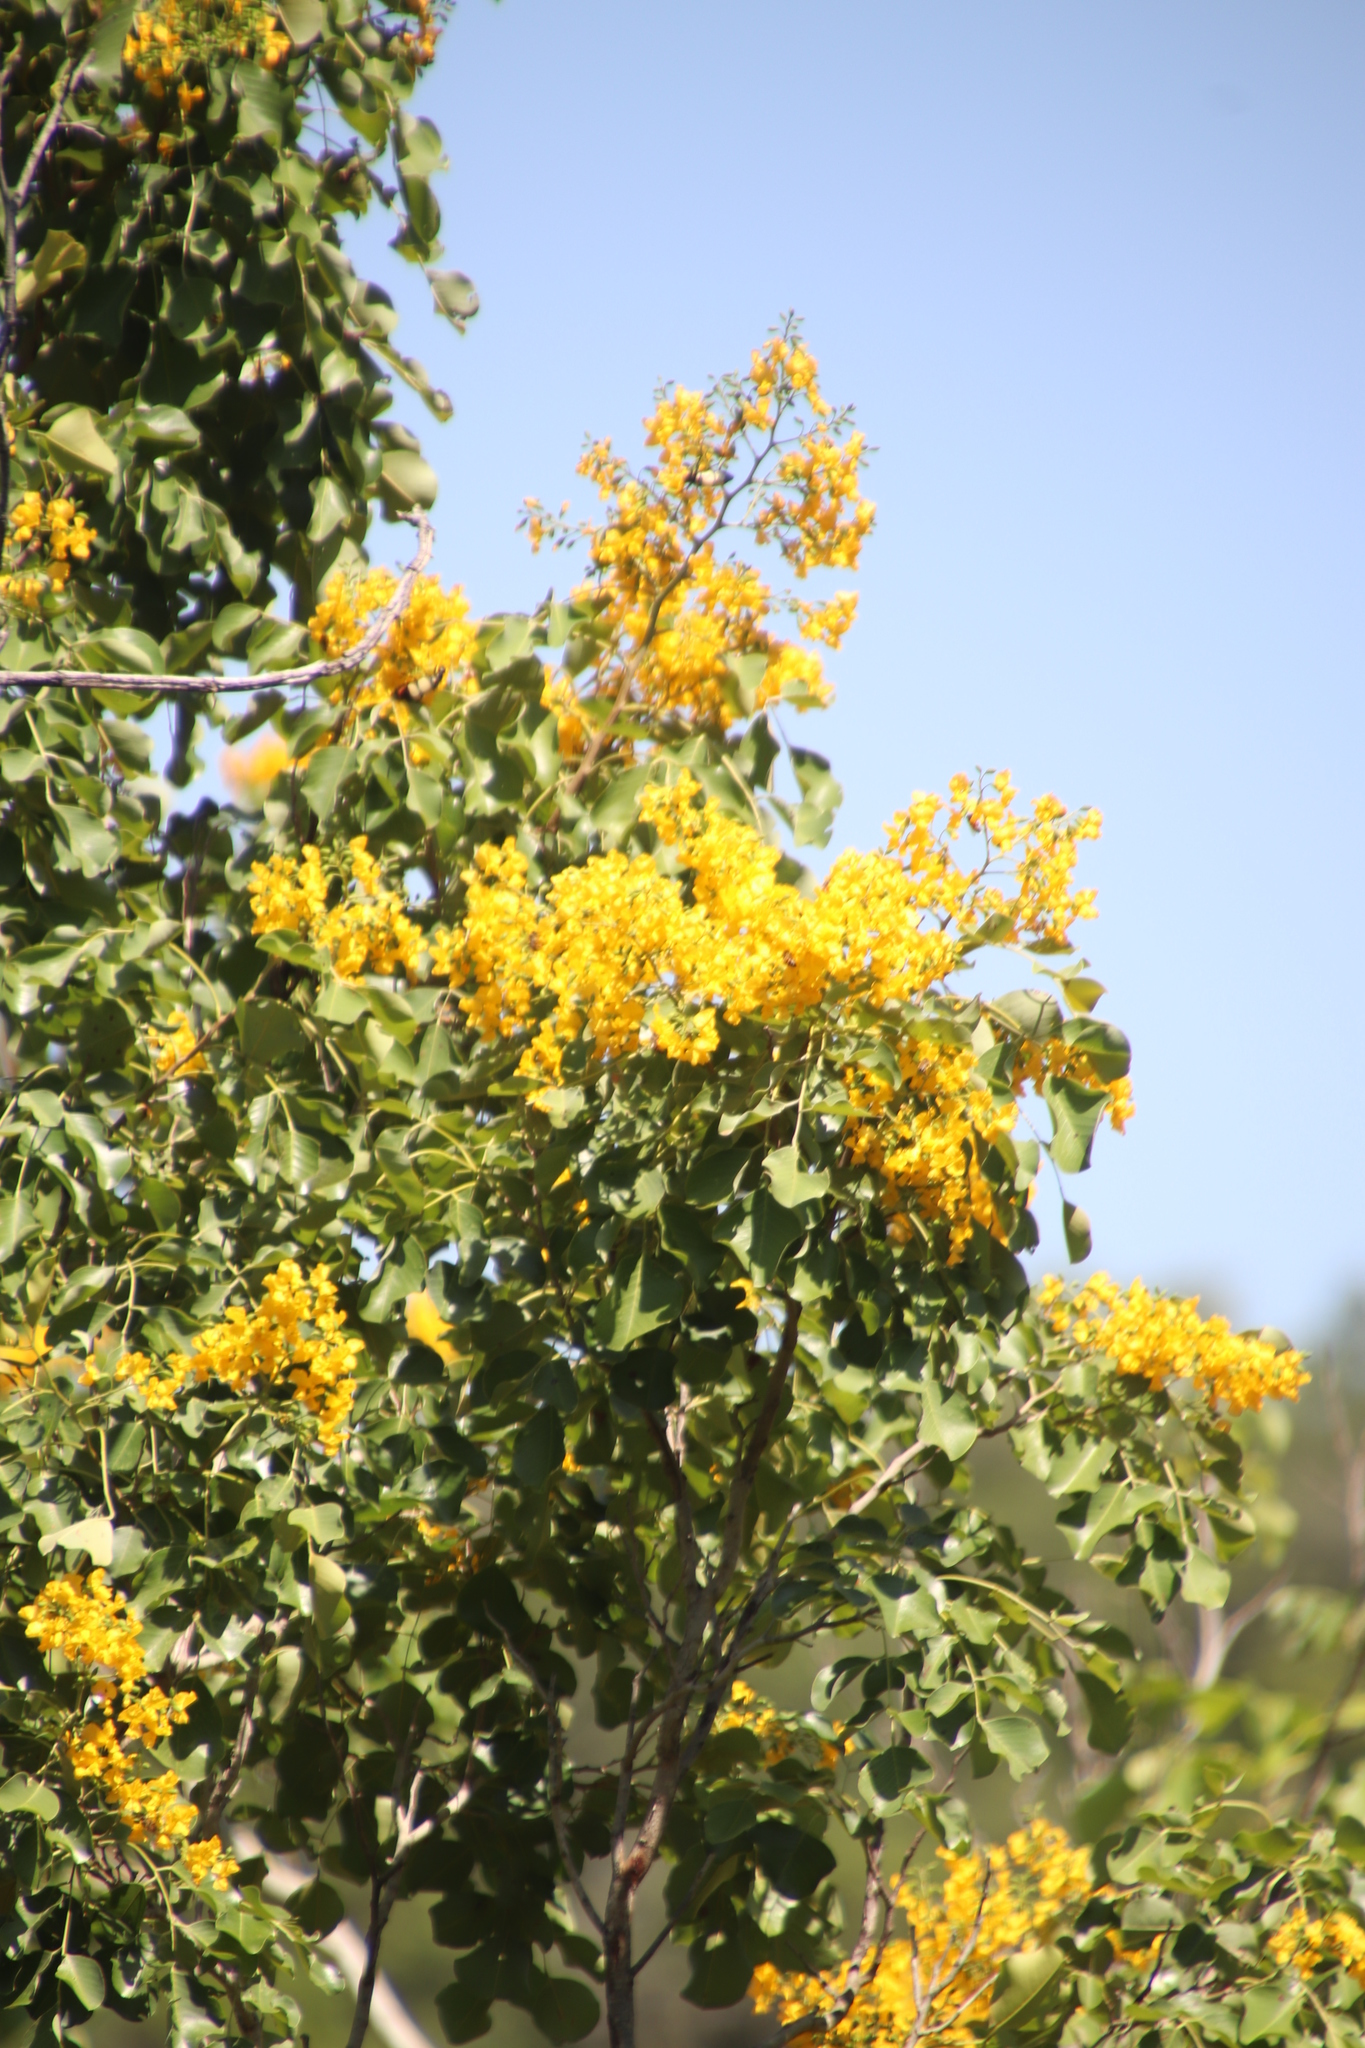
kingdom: Plantae
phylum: Tracheophyta
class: Magnoliopsida
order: Fabales
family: Fabaceae
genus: Pterocarpus
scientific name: Pterocarpus rotundifolius
